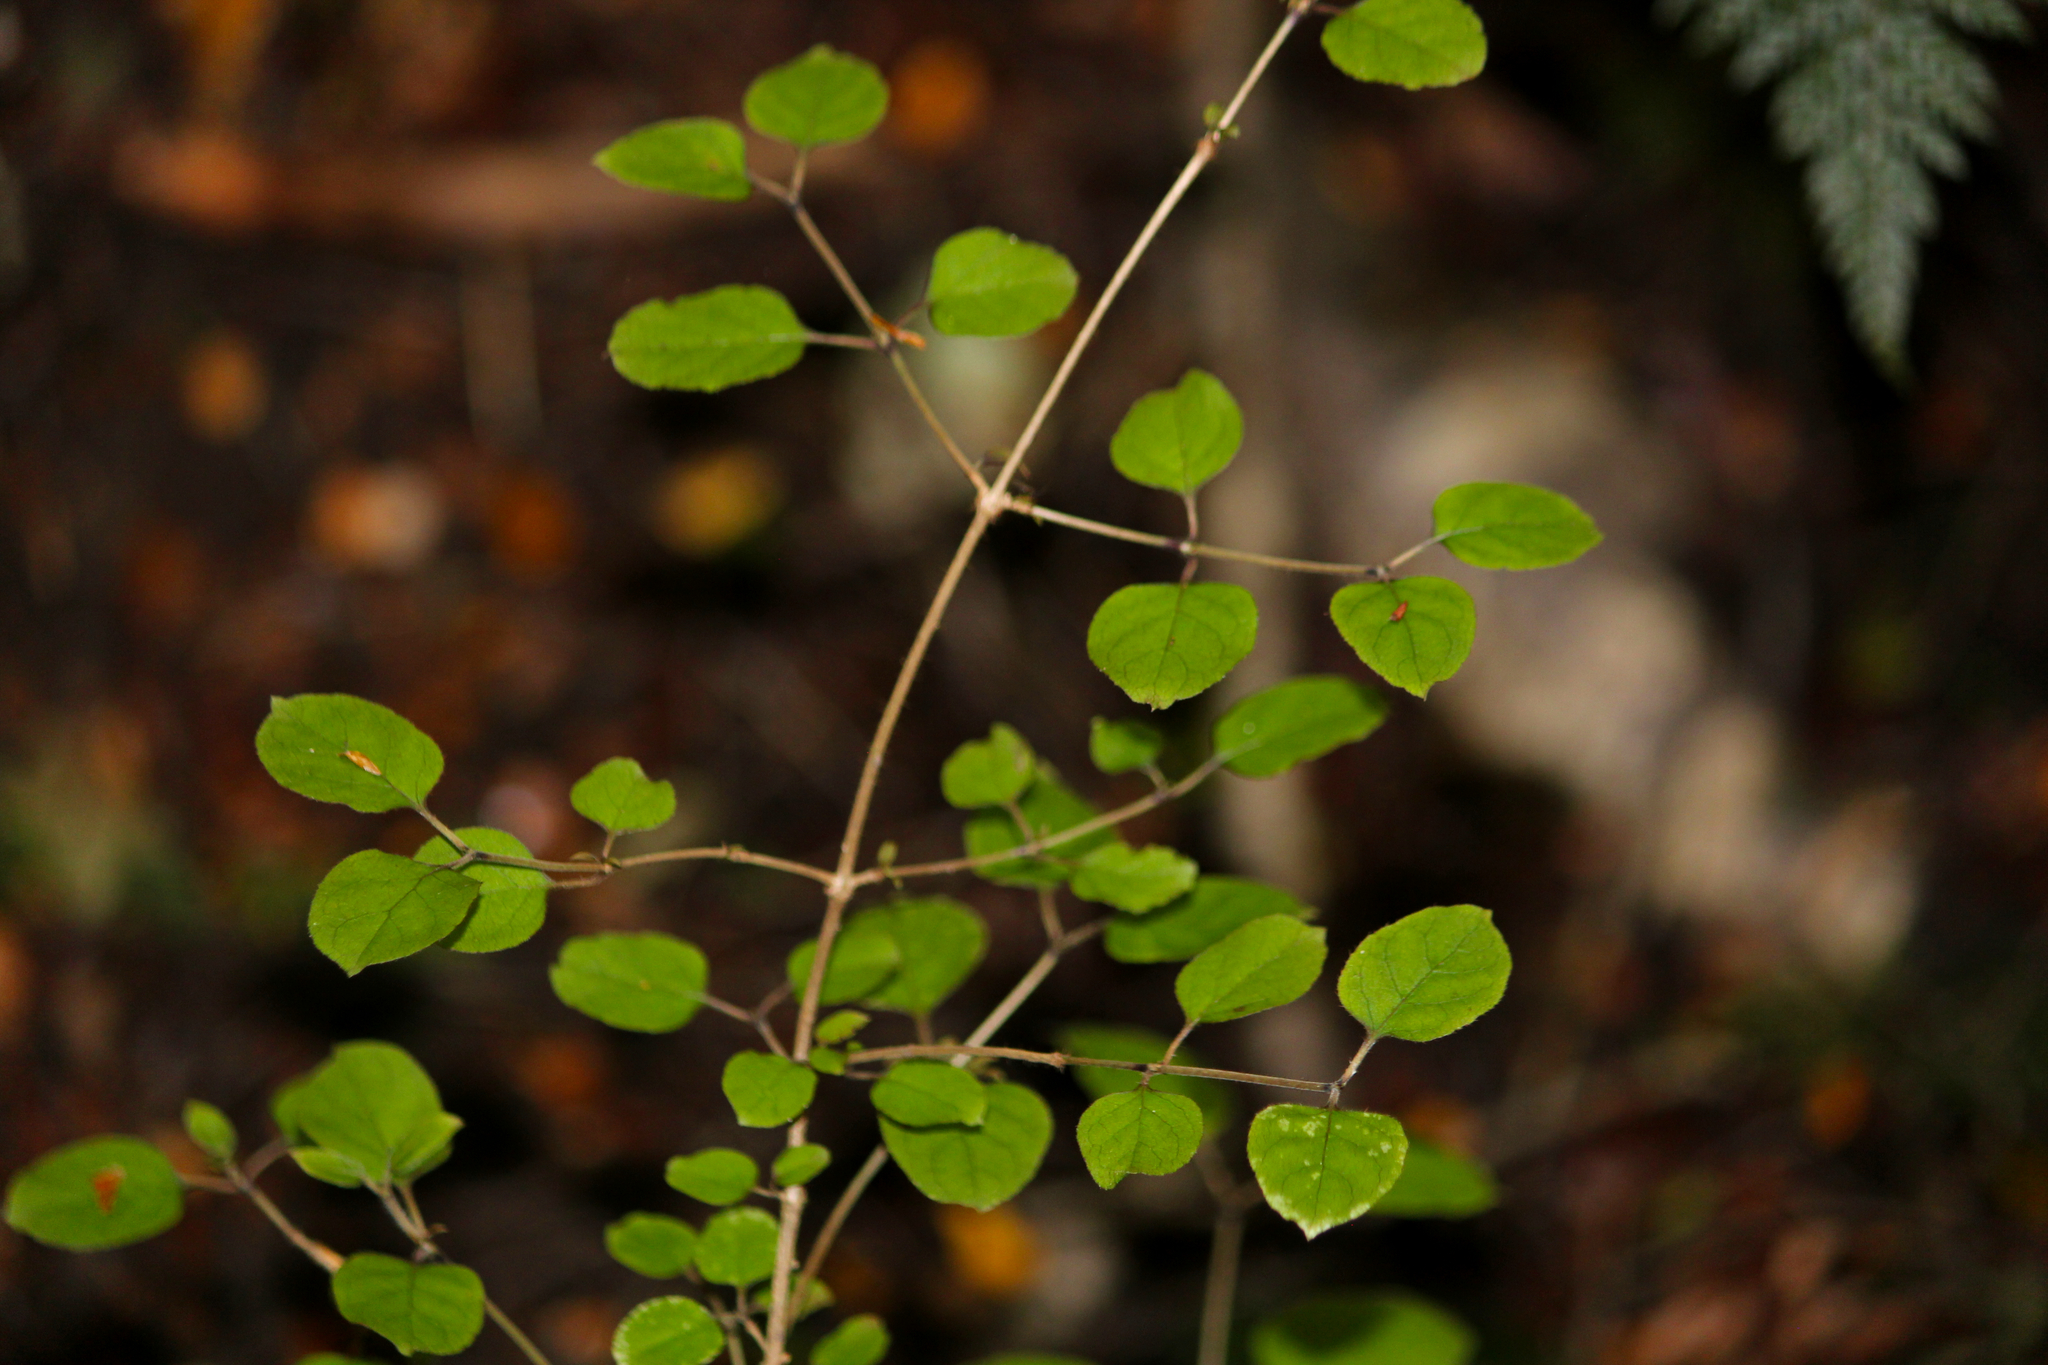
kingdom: Plantae
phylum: Tracheophyta
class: Magnoliopsida
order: Gentianales
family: Rubiaceae
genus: Coprosma
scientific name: Coprosma rotundifolia
